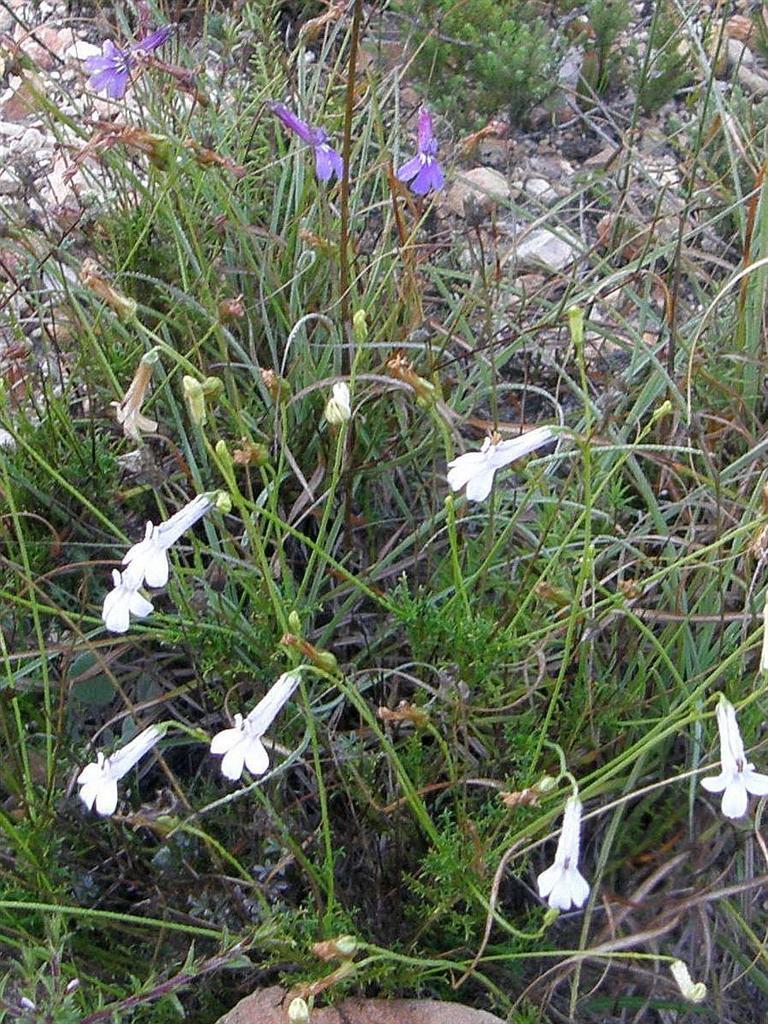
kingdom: Plantae
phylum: Tracheophyta
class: Magnoliopsida
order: Asterales
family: Campanulaceae
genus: Lobelia
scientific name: Lobelia coronopifolia
